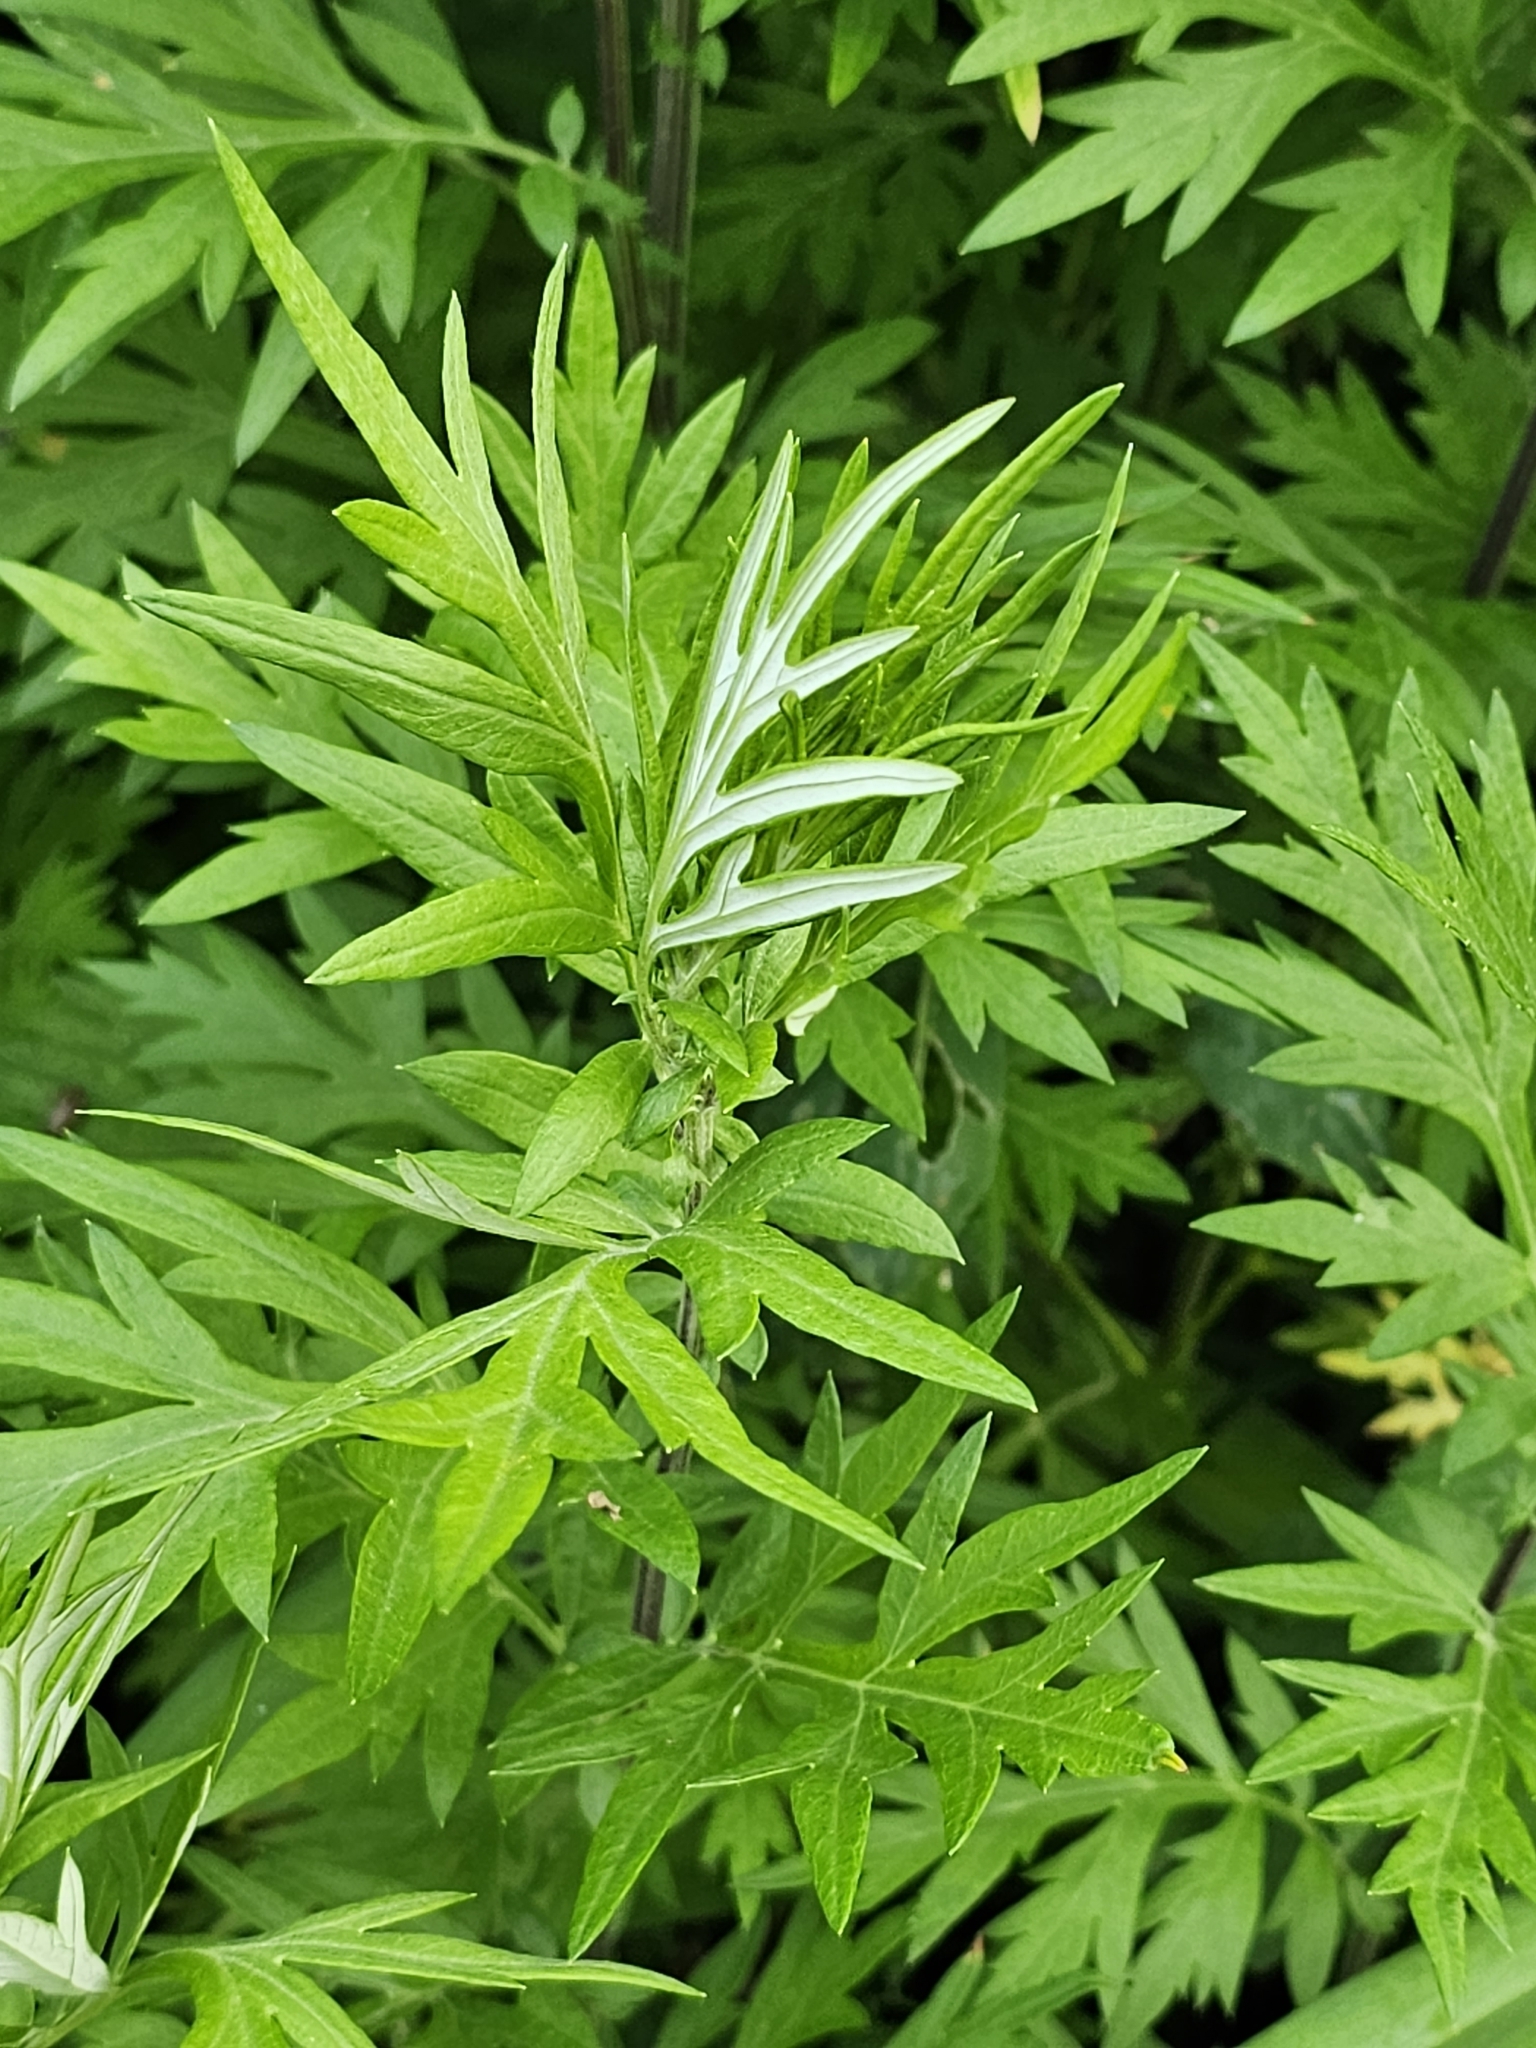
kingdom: Plantae
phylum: Tracheophyta
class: Magnoliopsida
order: Asterales
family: Asteraceae
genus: Artemisia
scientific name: Artemisia vulgaris
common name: Mugwort
